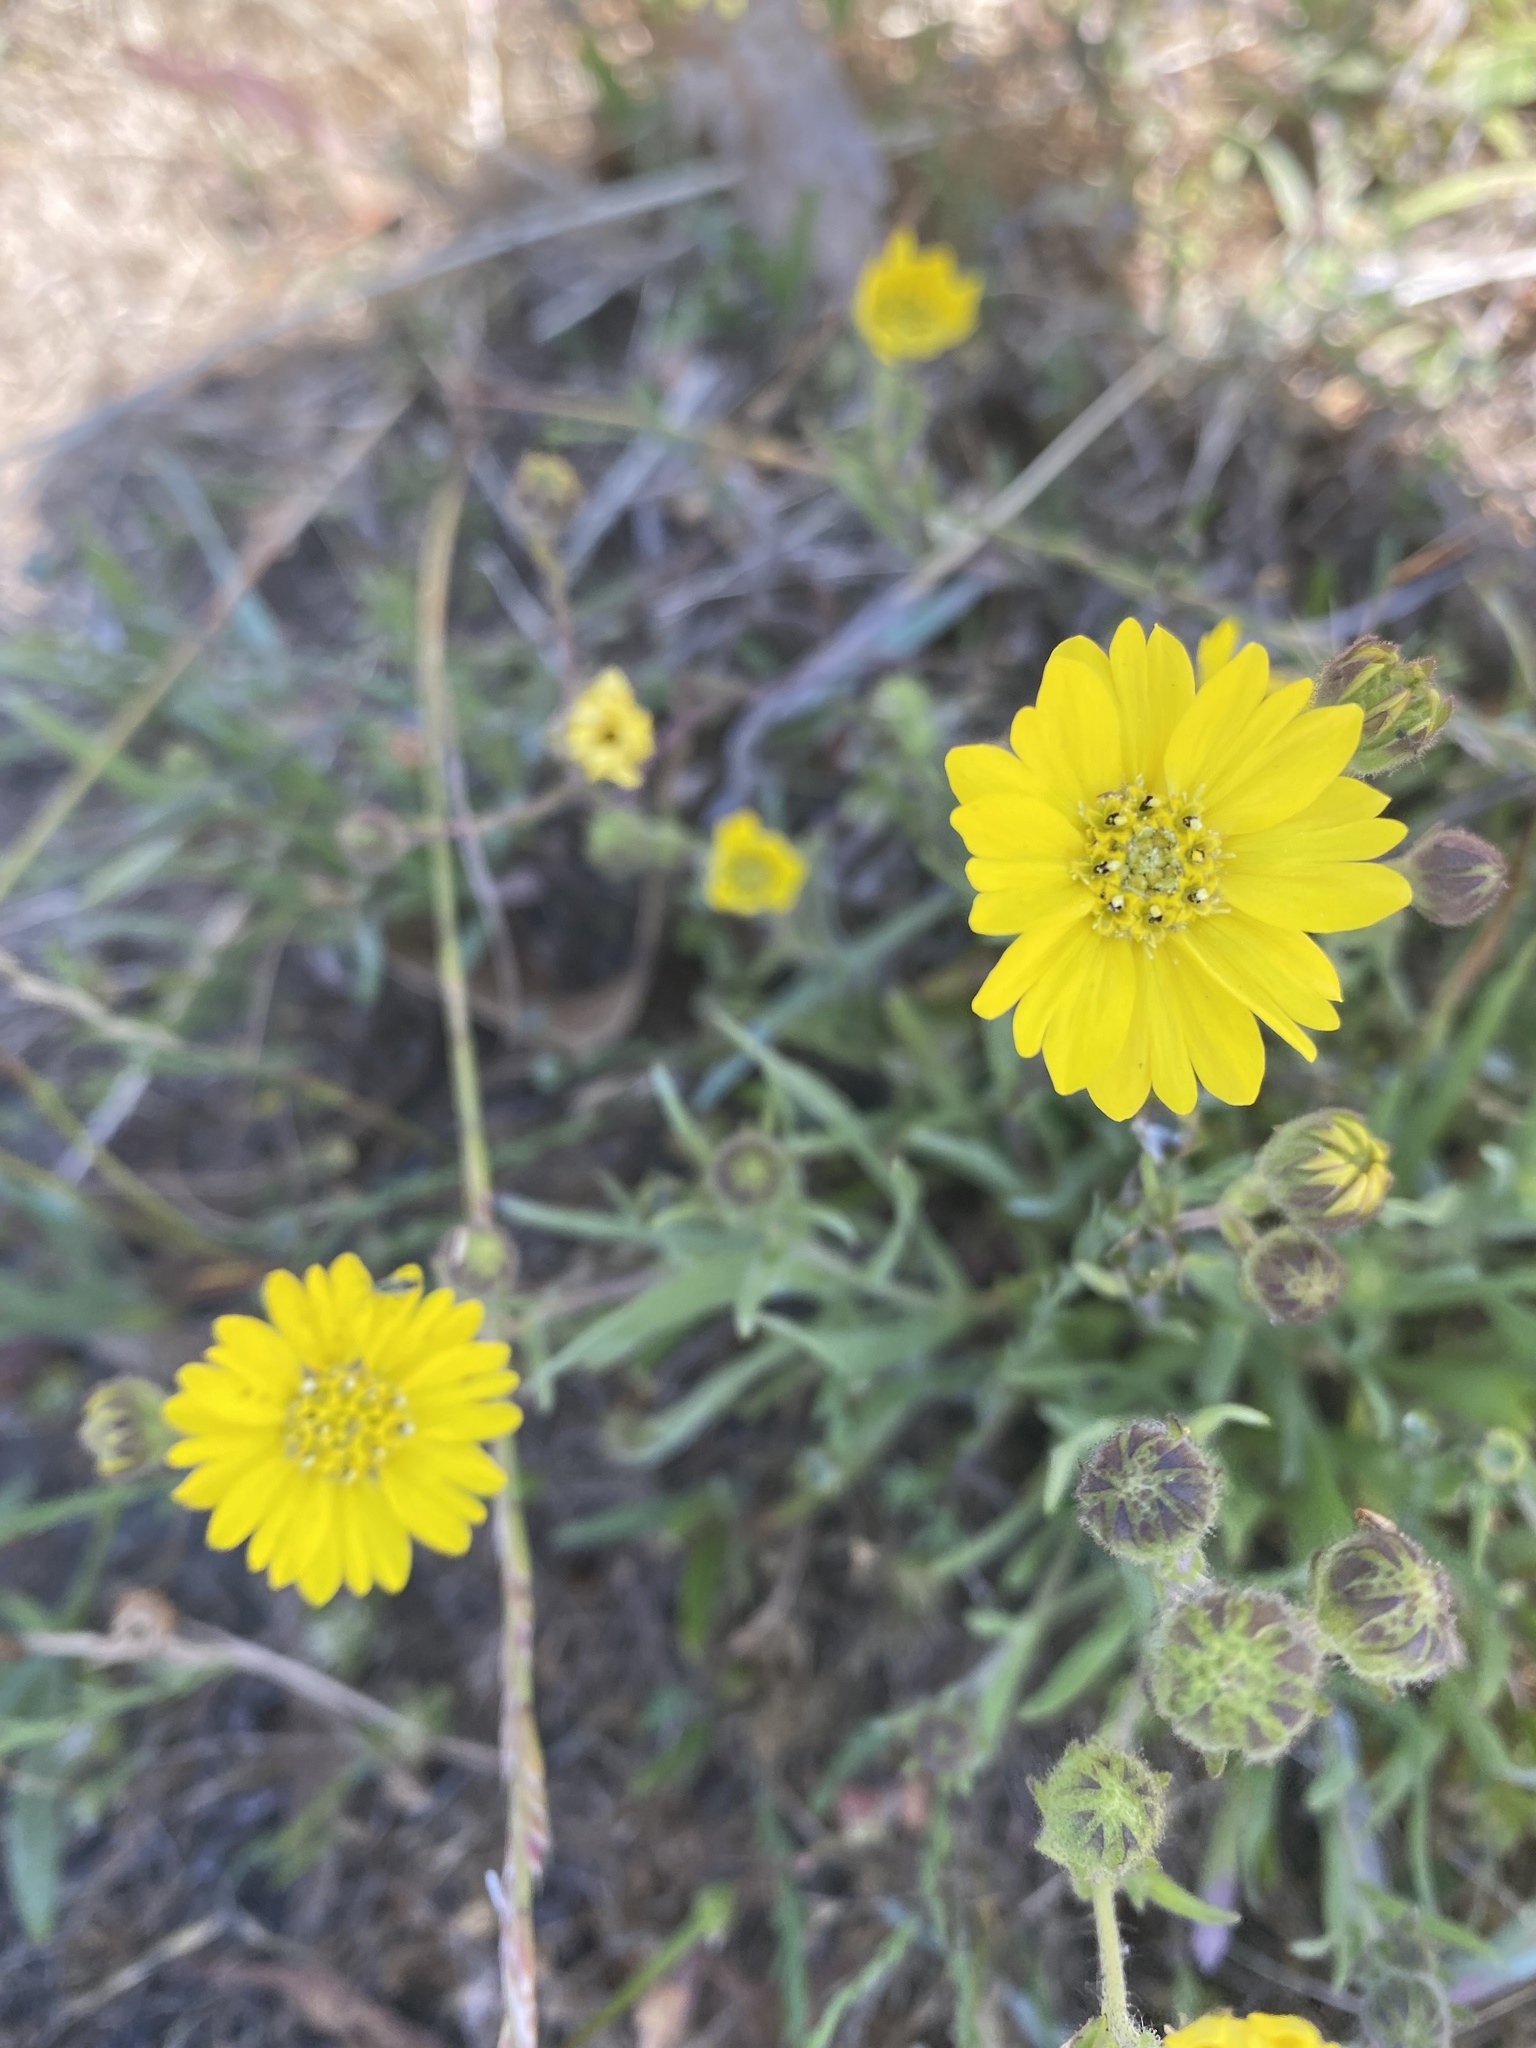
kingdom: Plantae
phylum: Tracheophyta
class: Magnoliopsida
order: Asterales
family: Asteraceae
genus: Hemizonia
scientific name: Hemizonia congesta
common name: Hayfield tarweed
